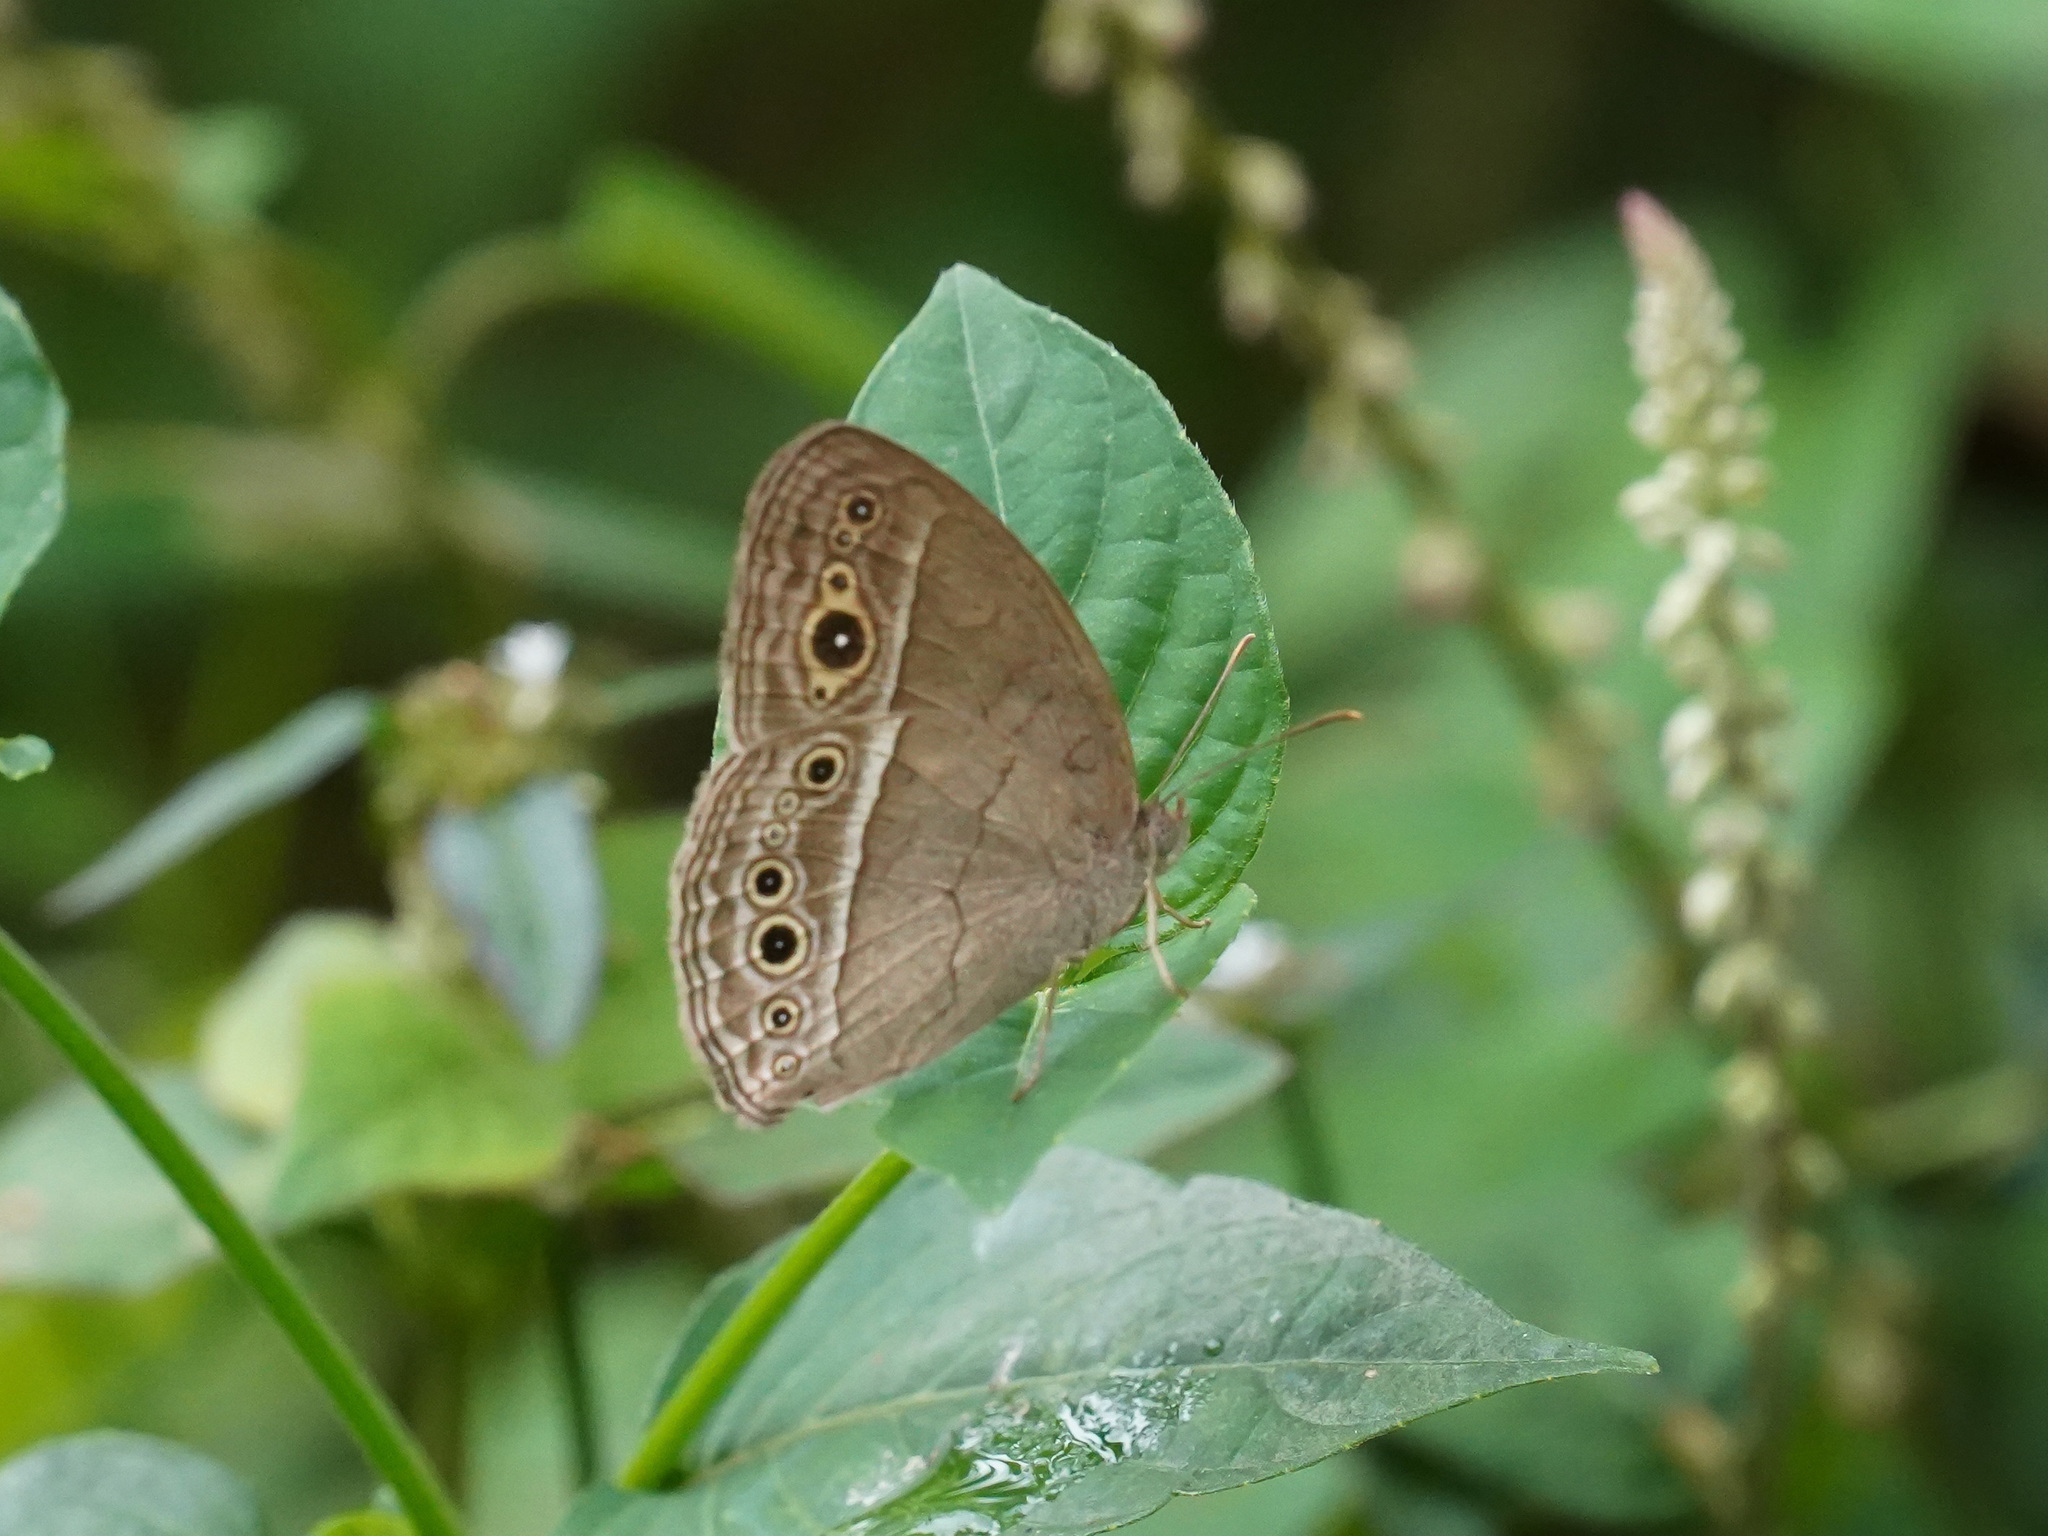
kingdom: Animalia
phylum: Arthropoda
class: Insecta
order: Lepidoptera
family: Nymphalidae
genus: Mycalesis
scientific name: Mycalesis perseoides
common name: Burmese bushbrown
